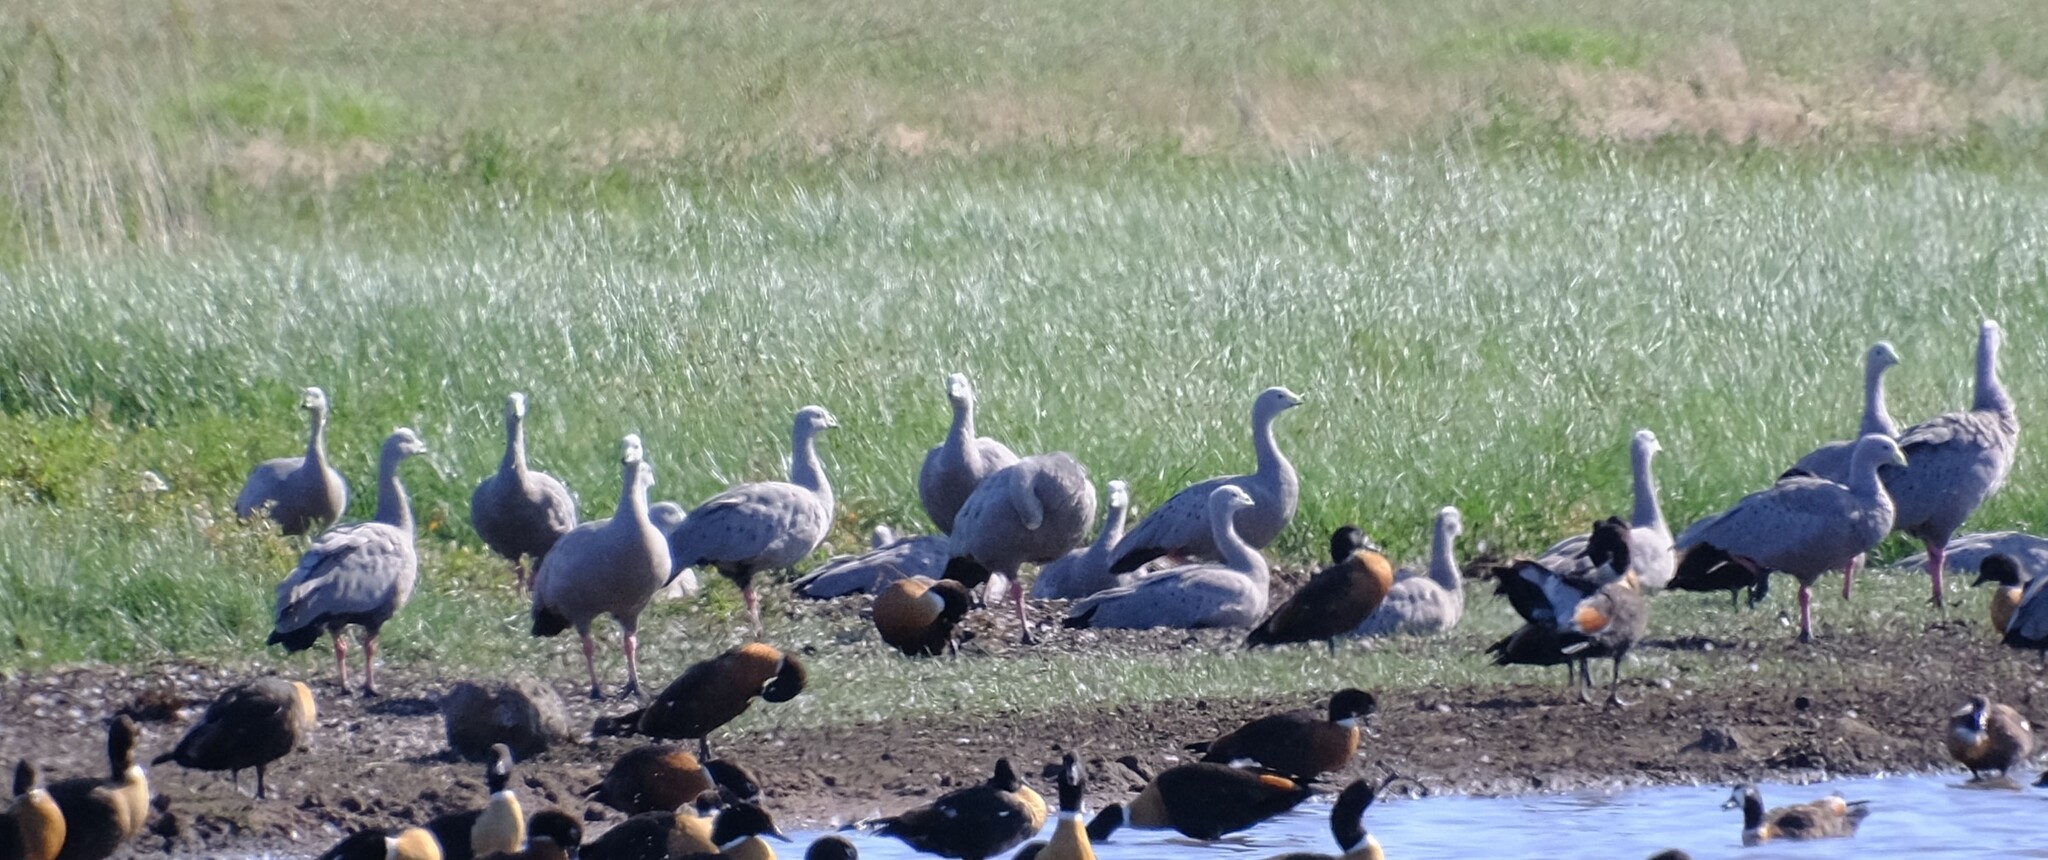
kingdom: Animalia
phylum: Chordata
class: Aves
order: Anseriformes
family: Anatidae
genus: Cereopsis
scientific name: Cereopsis novaehollandiae
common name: Cape barren goose
